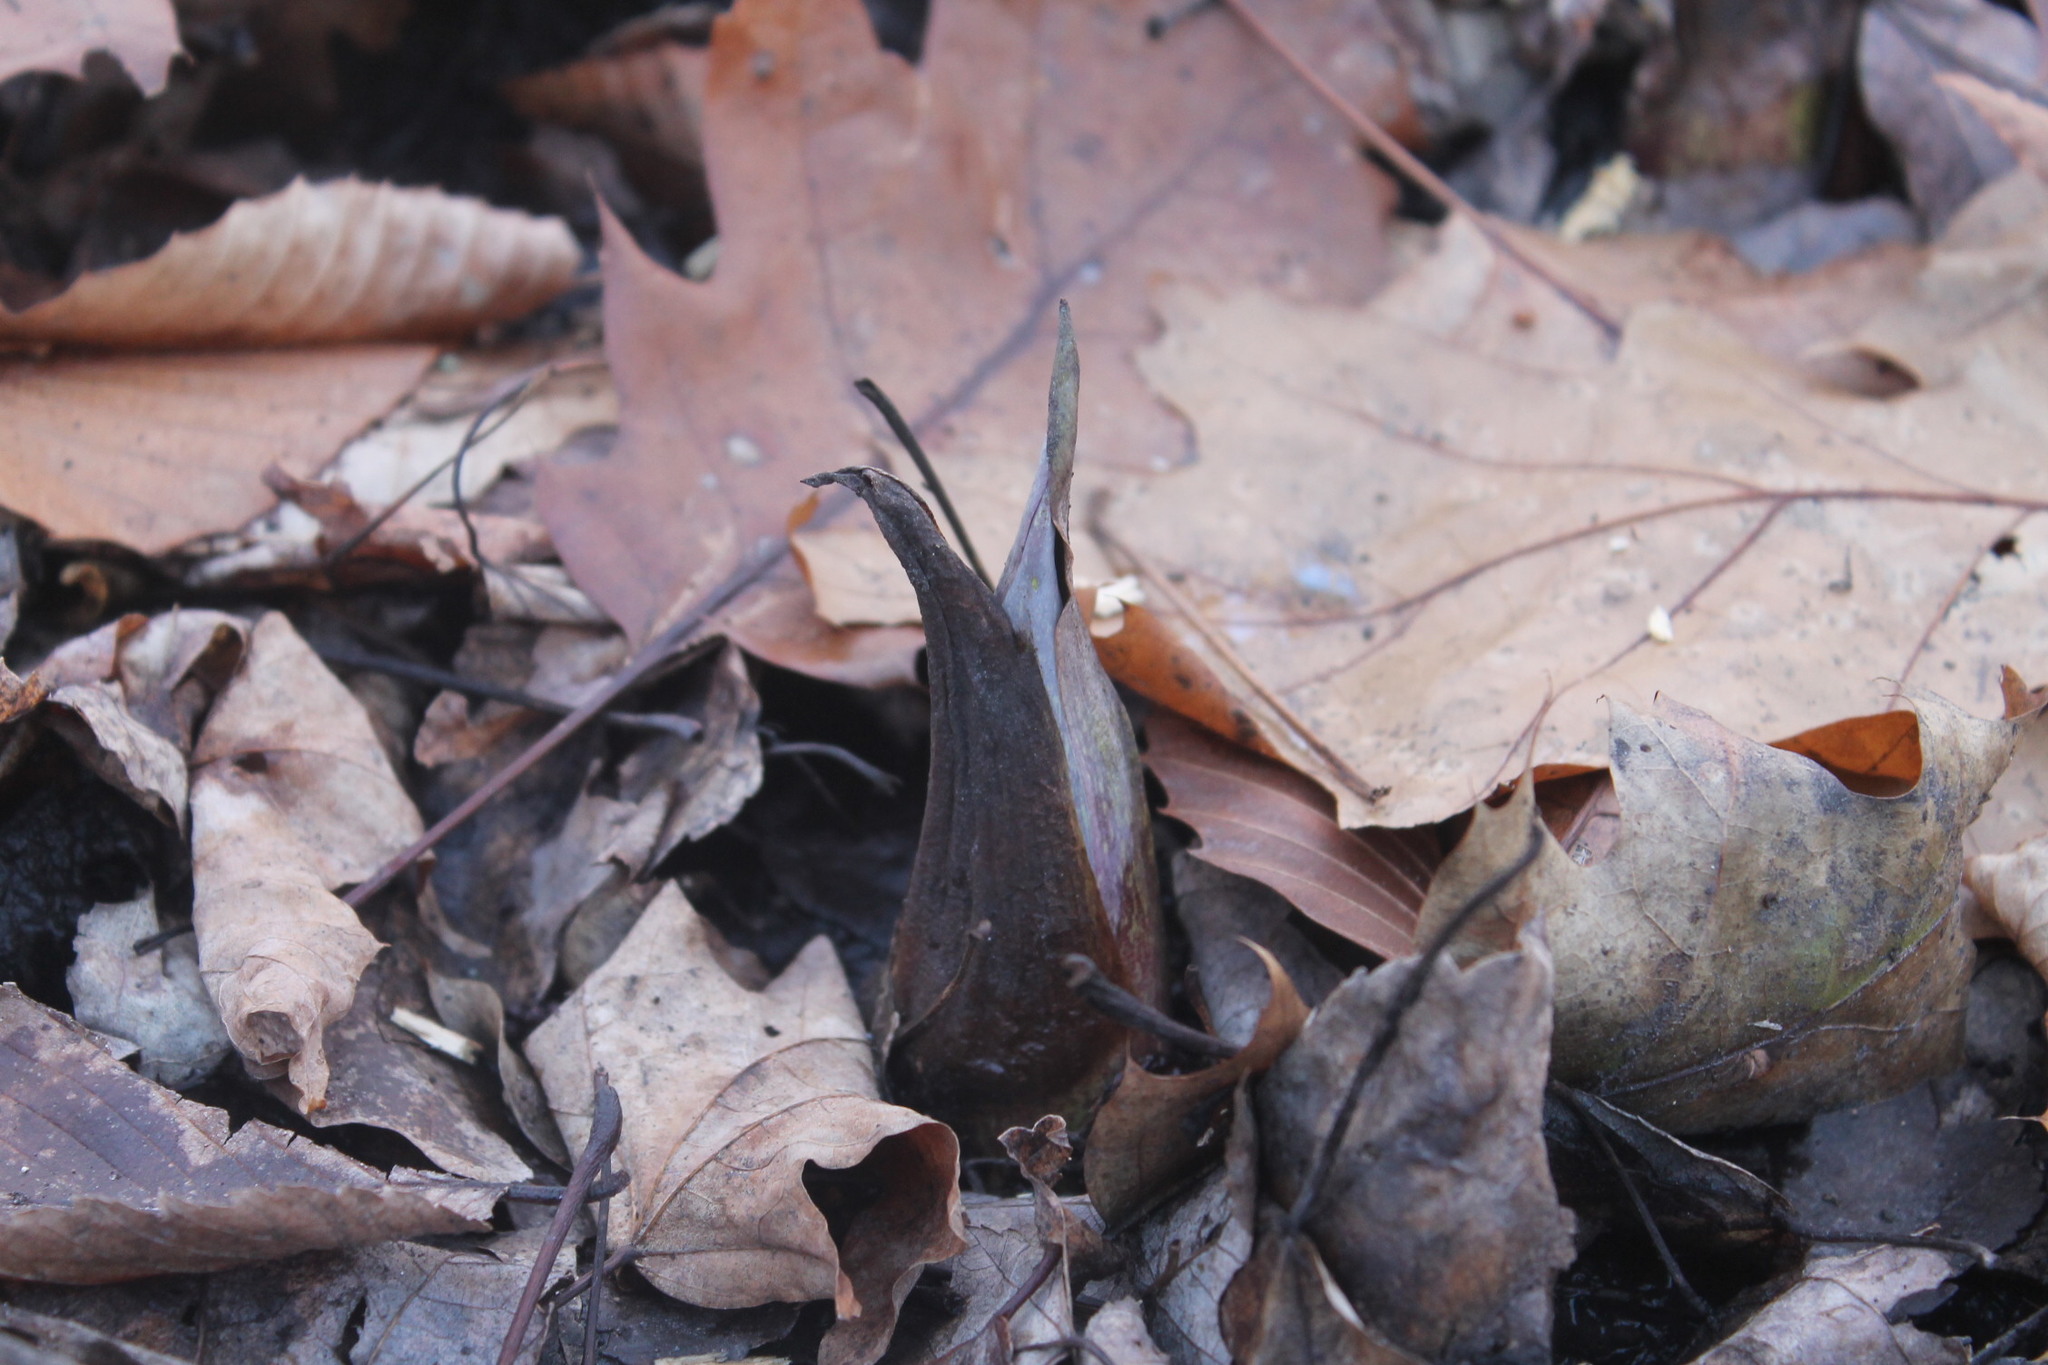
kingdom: Plantae
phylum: Tracheophyta
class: Liliopsida
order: Alismatales
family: Araceae
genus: Symplocarpus
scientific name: Symplocarpus foetidus
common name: Eastern skunk cabbage
